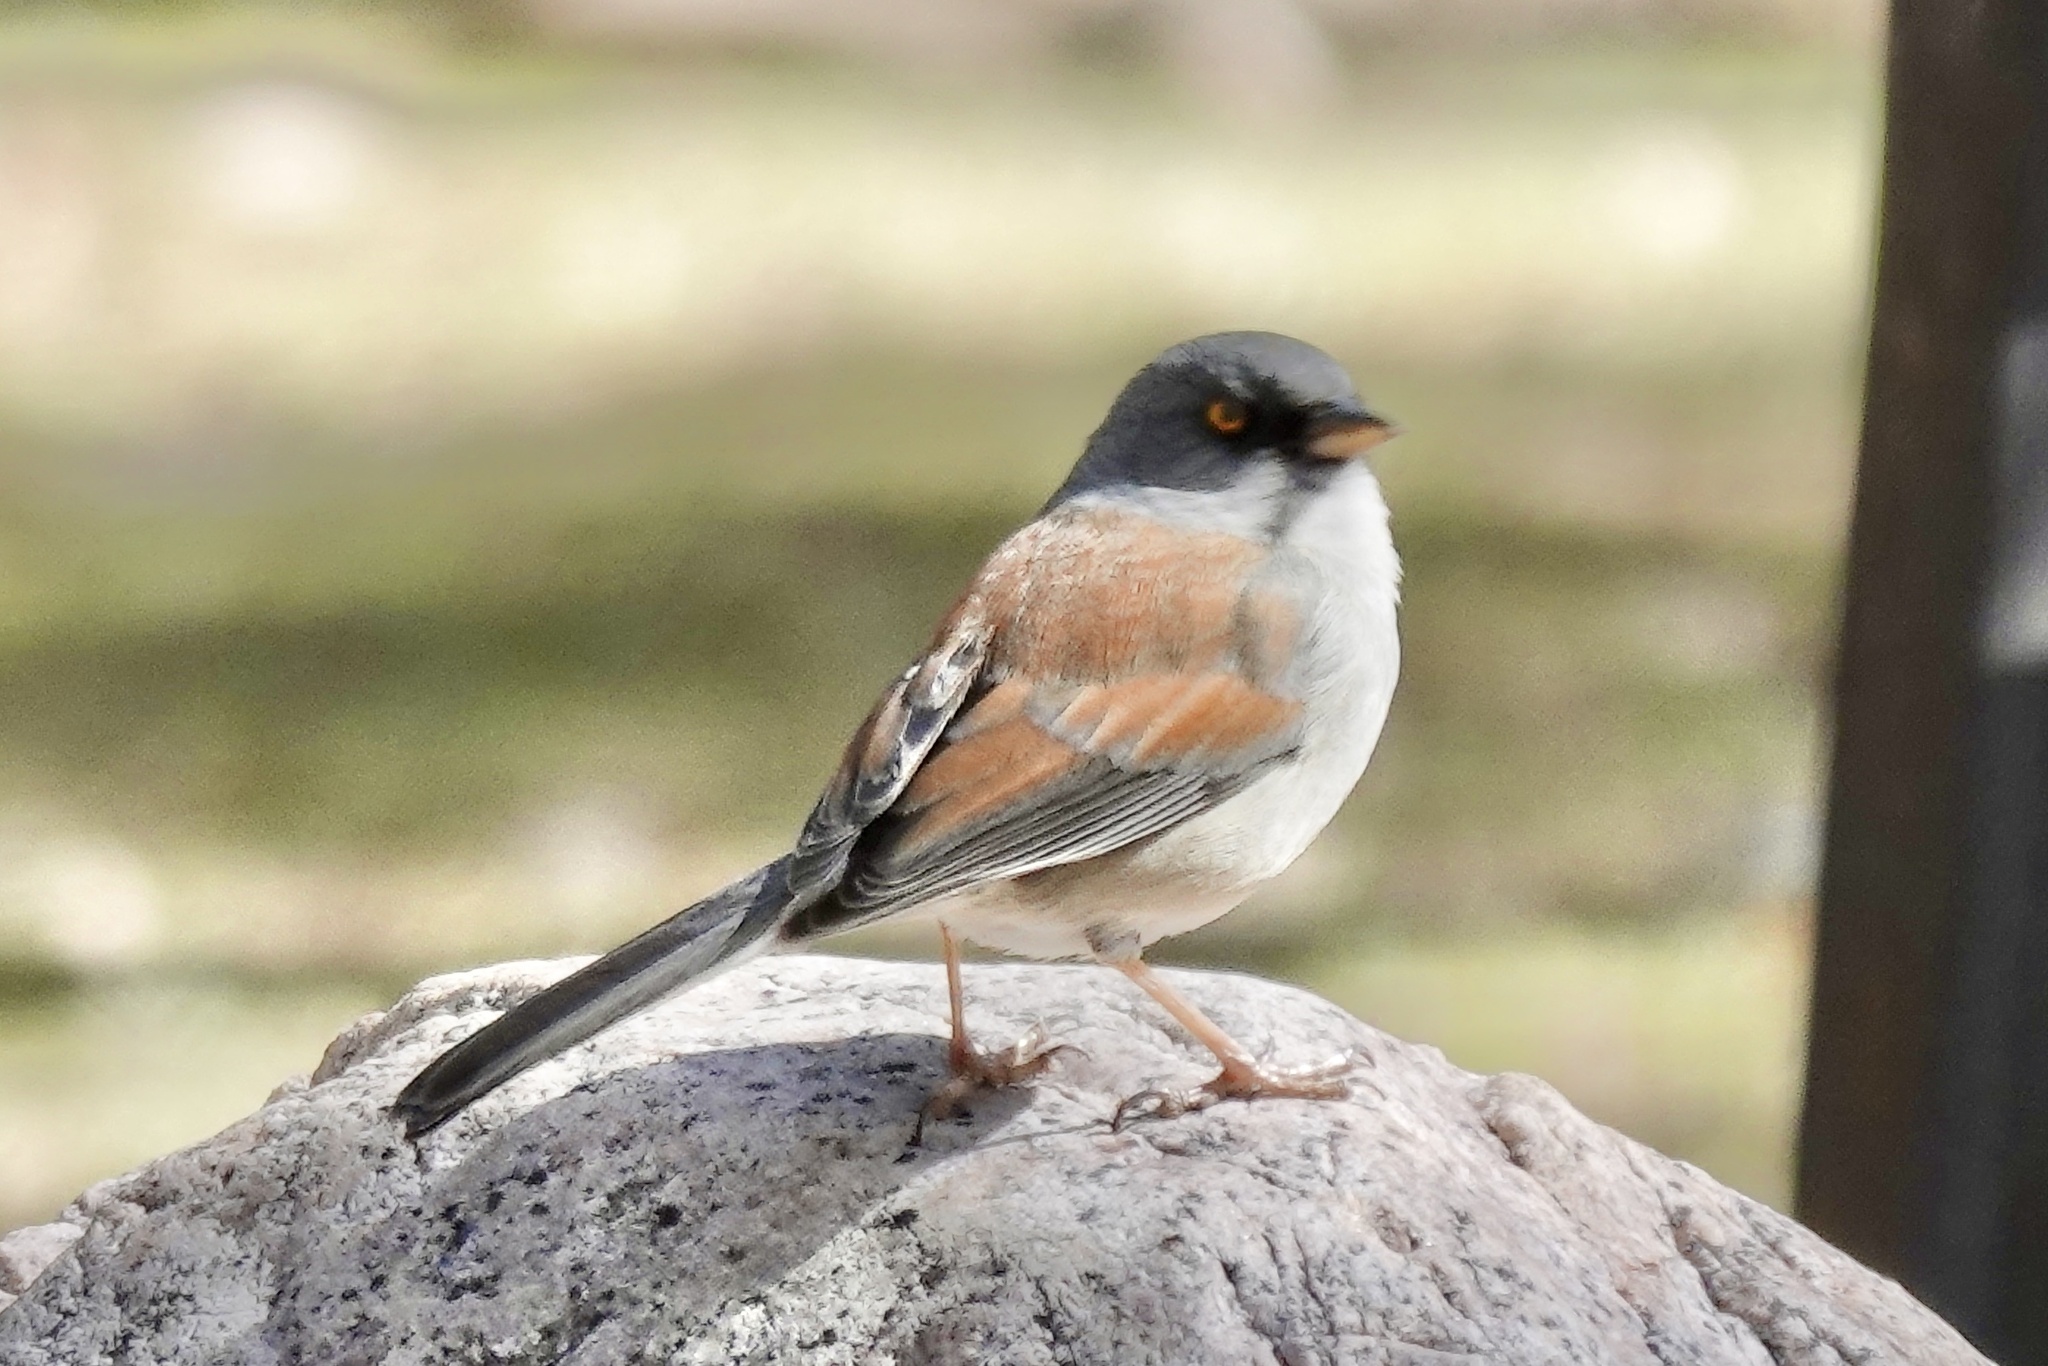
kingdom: Animalia
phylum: Chordata
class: Aves
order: Passeriformes
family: Passerellidae
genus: Junco
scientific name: Junco phaeonotus
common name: Yellow-eyed junco
